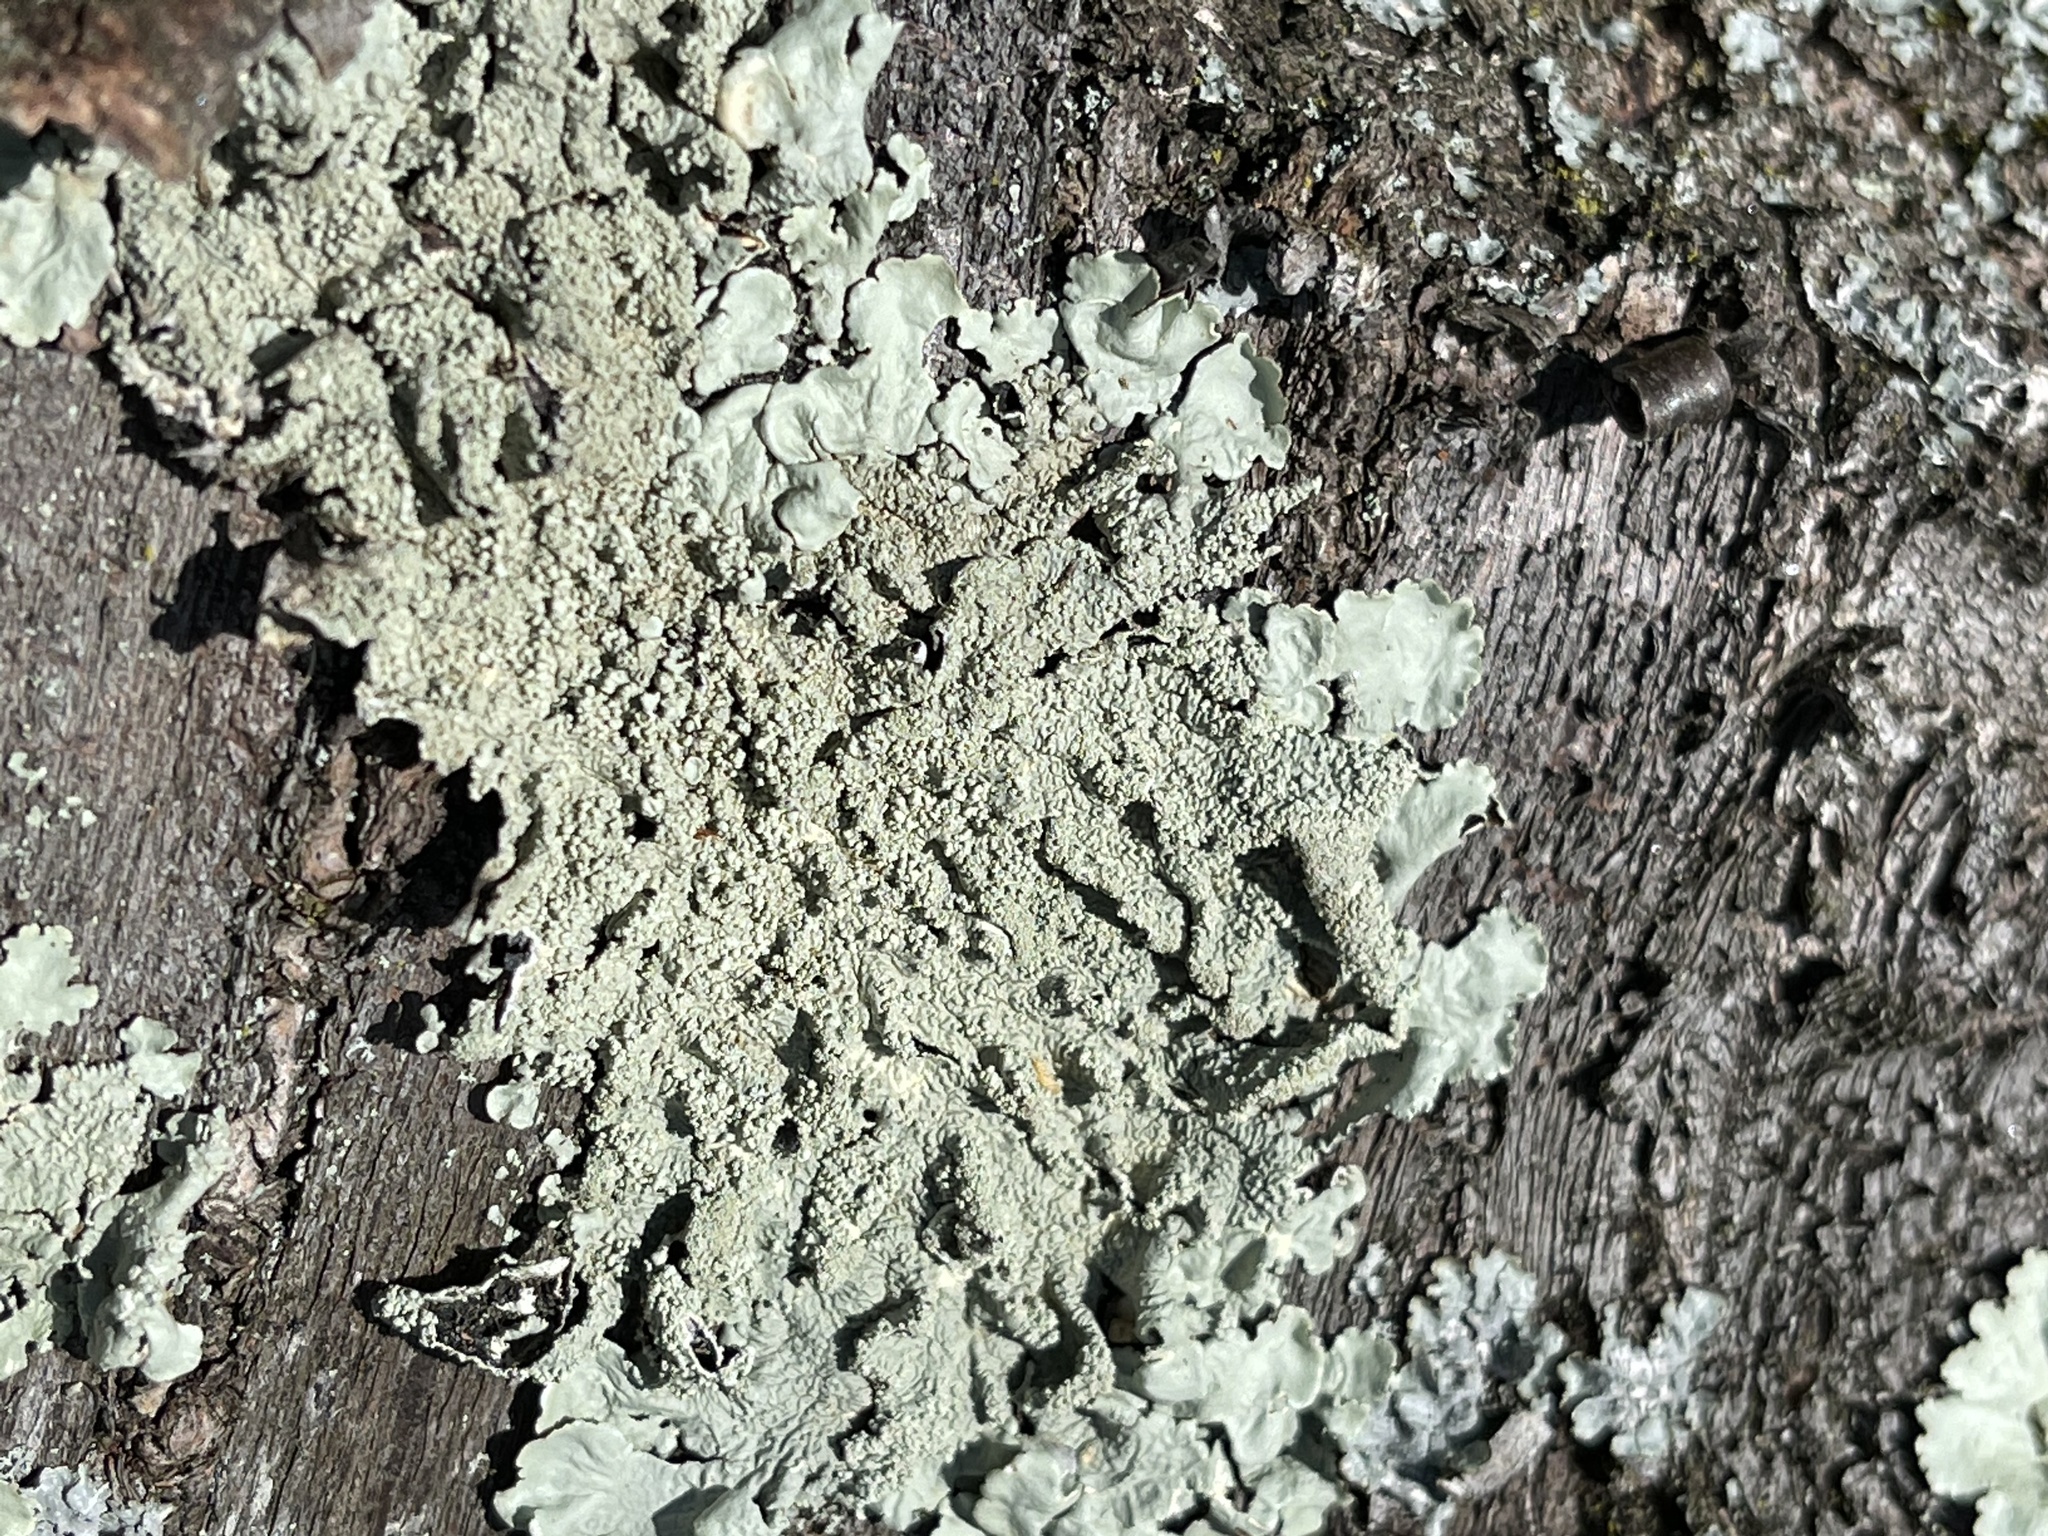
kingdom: Fungi
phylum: Ascomycota
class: Lecanoromycetes
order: Lecanorales
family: Parmeliaceae
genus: Flavoparmelia
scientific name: Flavoparmelia caperata
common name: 40-mile per hour lichen
